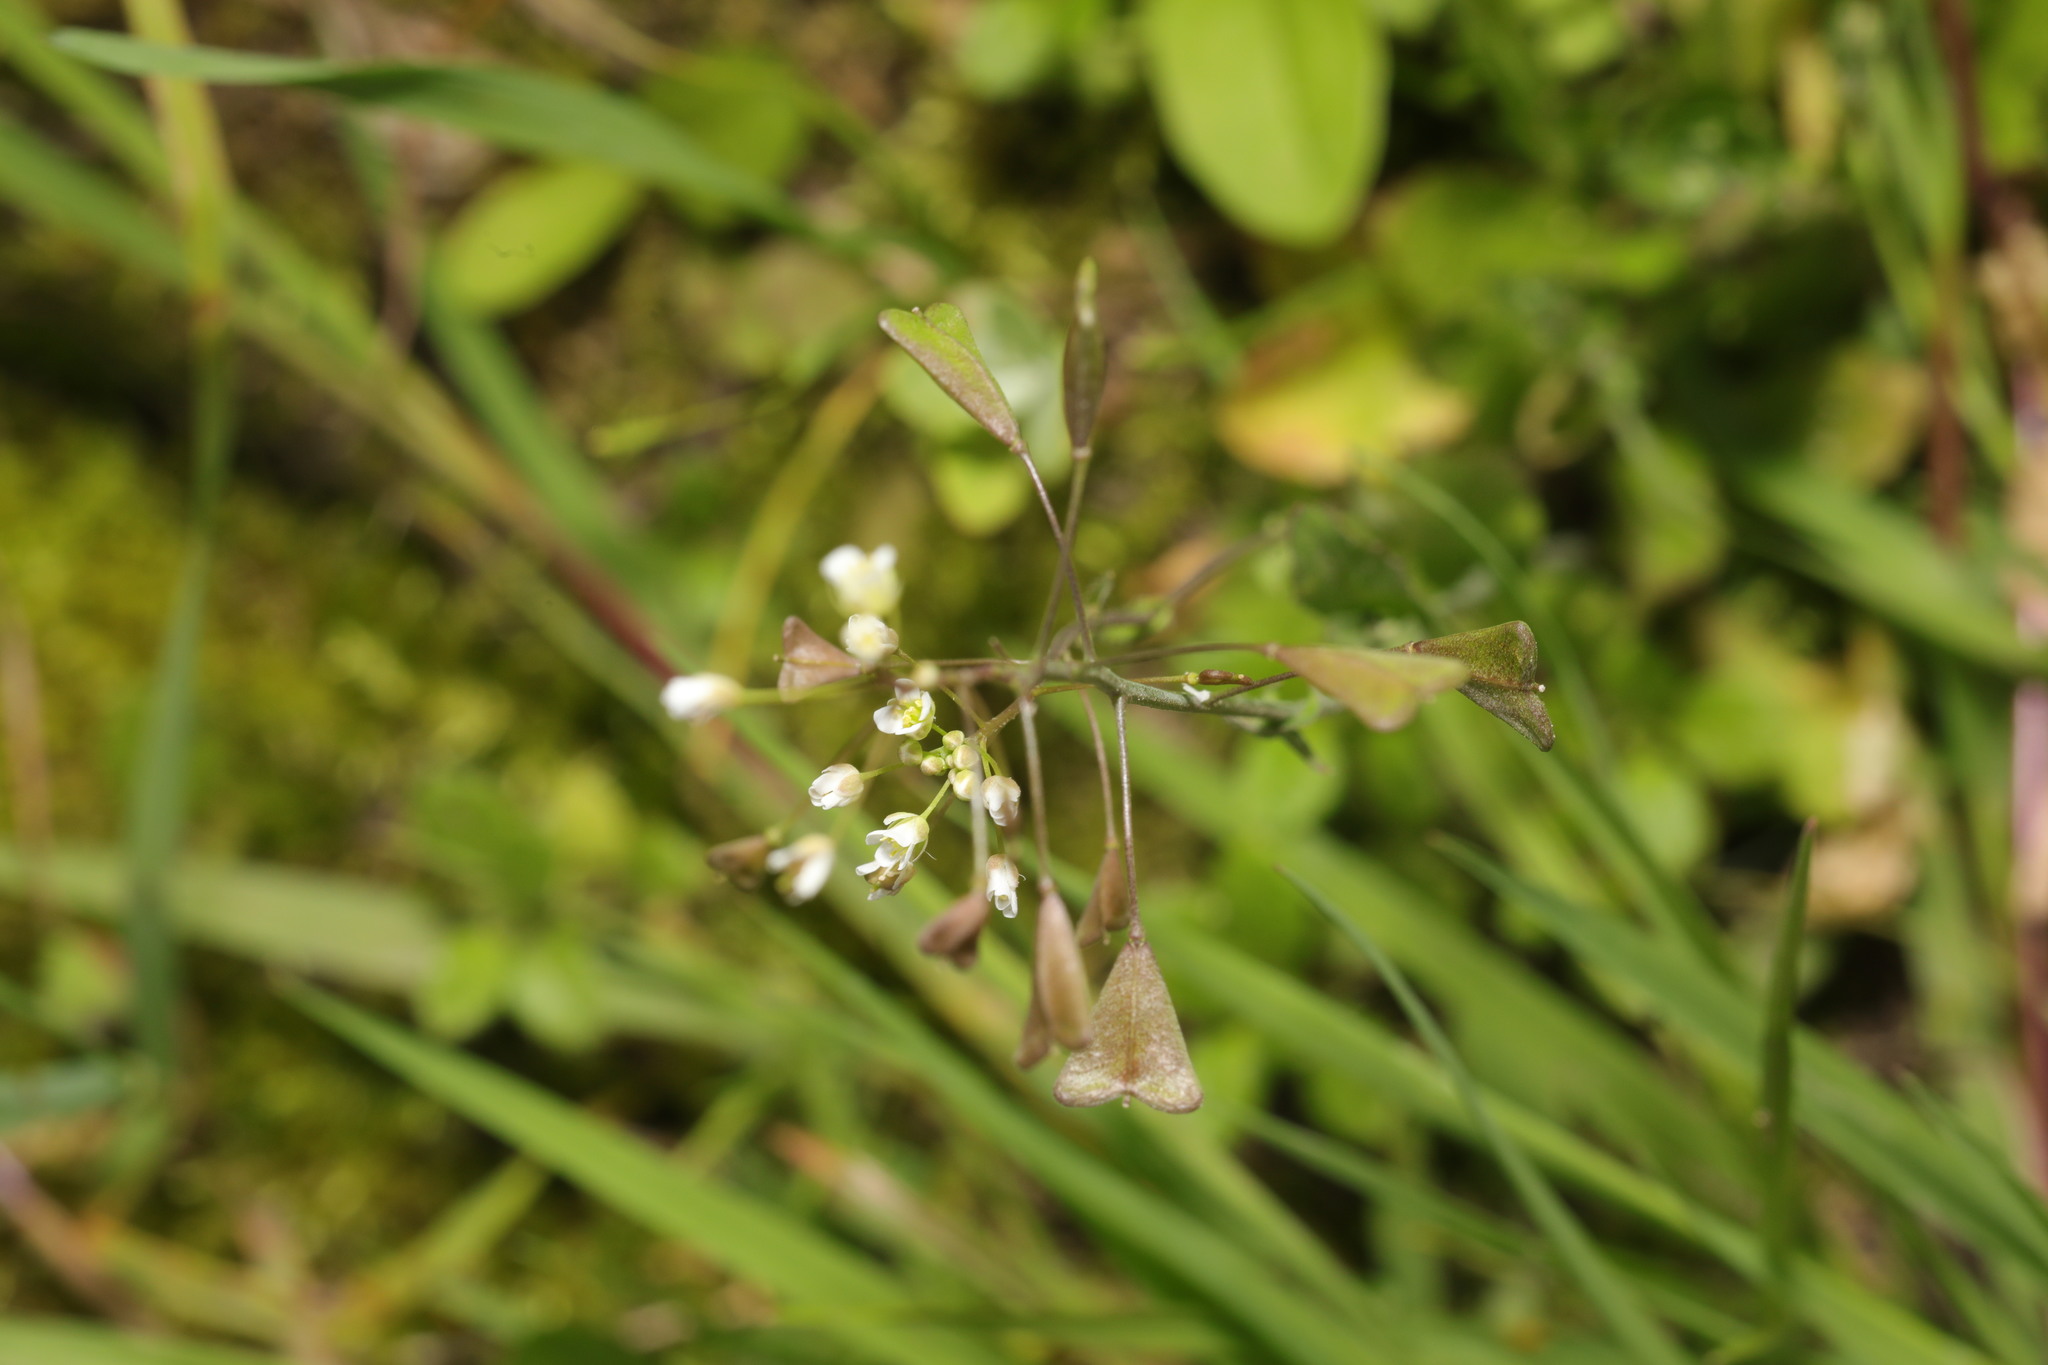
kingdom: Plantae
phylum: Tracheophyta
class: Magnoliopsida
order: Brassicales
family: Brassicaceae
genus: Capsella
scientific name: Capsella bursa-pastoris
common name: Shepherd's purse
